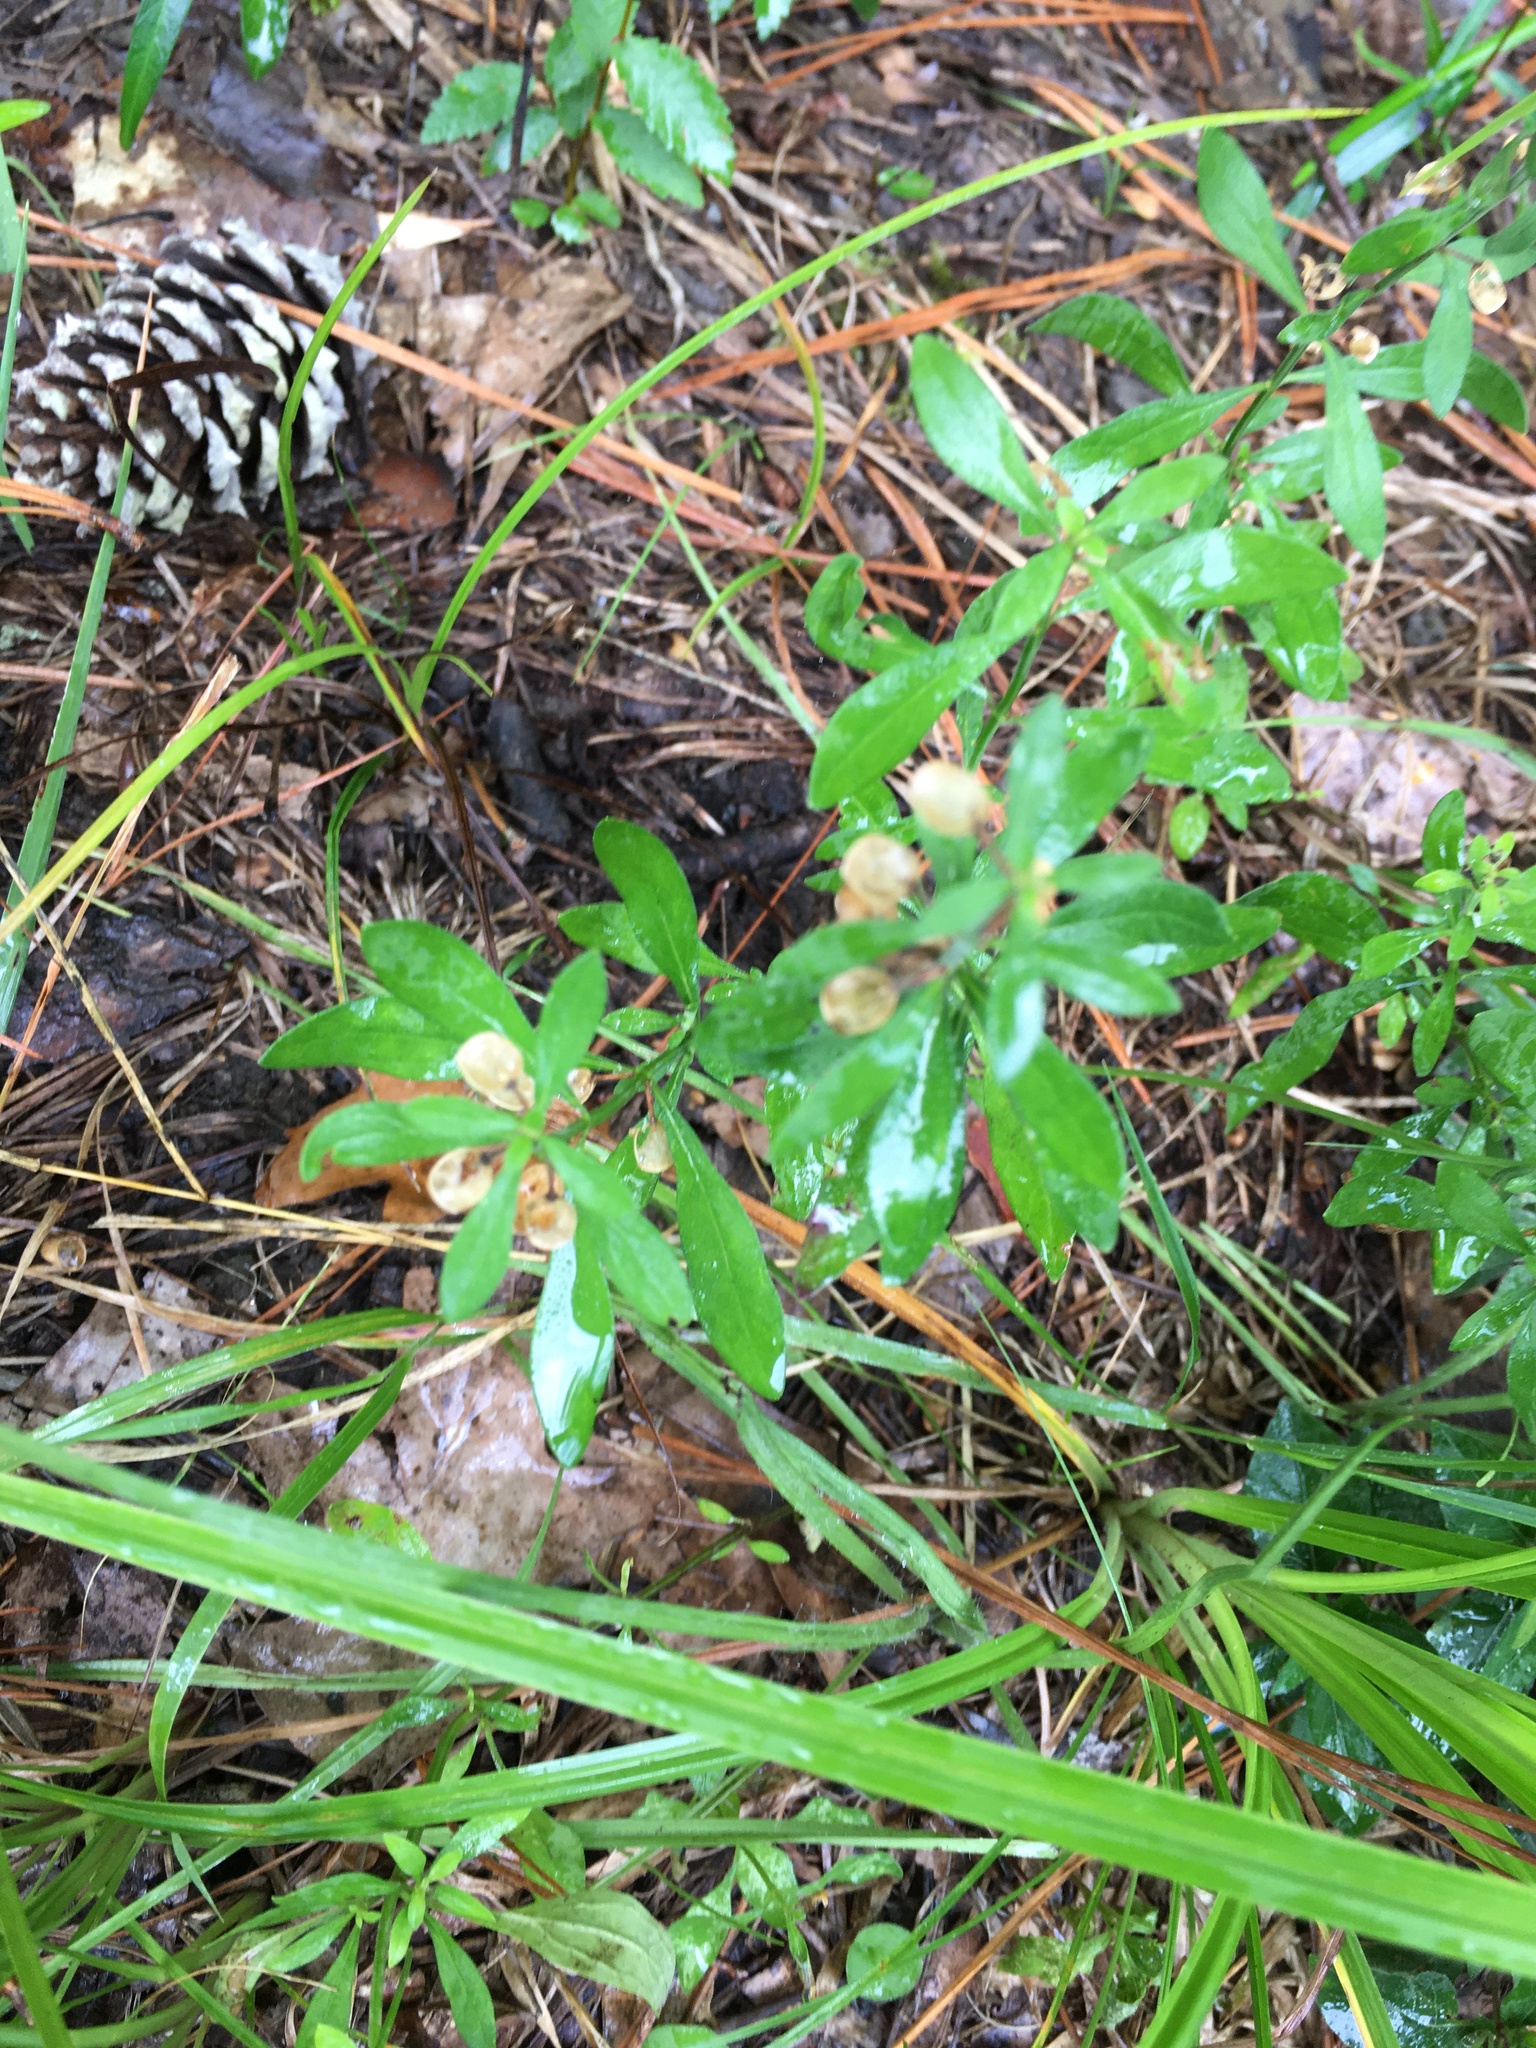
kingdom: Plantae
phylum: Tracheophyta
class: Magnoliopsida
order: Lamiales
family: Lamiaceae
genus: Scutellaria
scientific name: Scutellaria integrifolia
